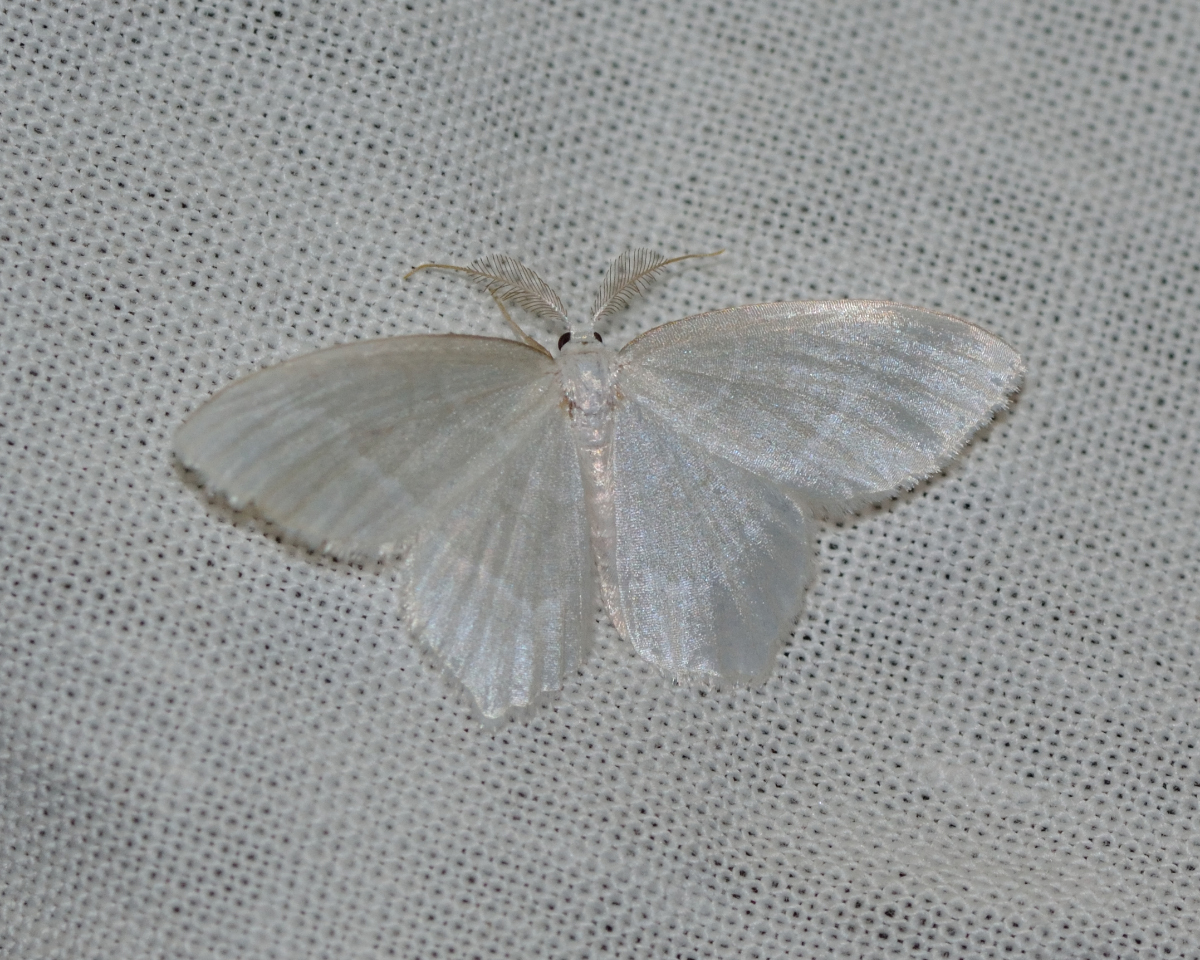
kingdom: Animalia
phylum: Arthropoda
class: Insecta
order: Lepidoptera
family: Geometridae
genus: Jodis
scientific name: Jodis lactearia
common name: Little emerald
